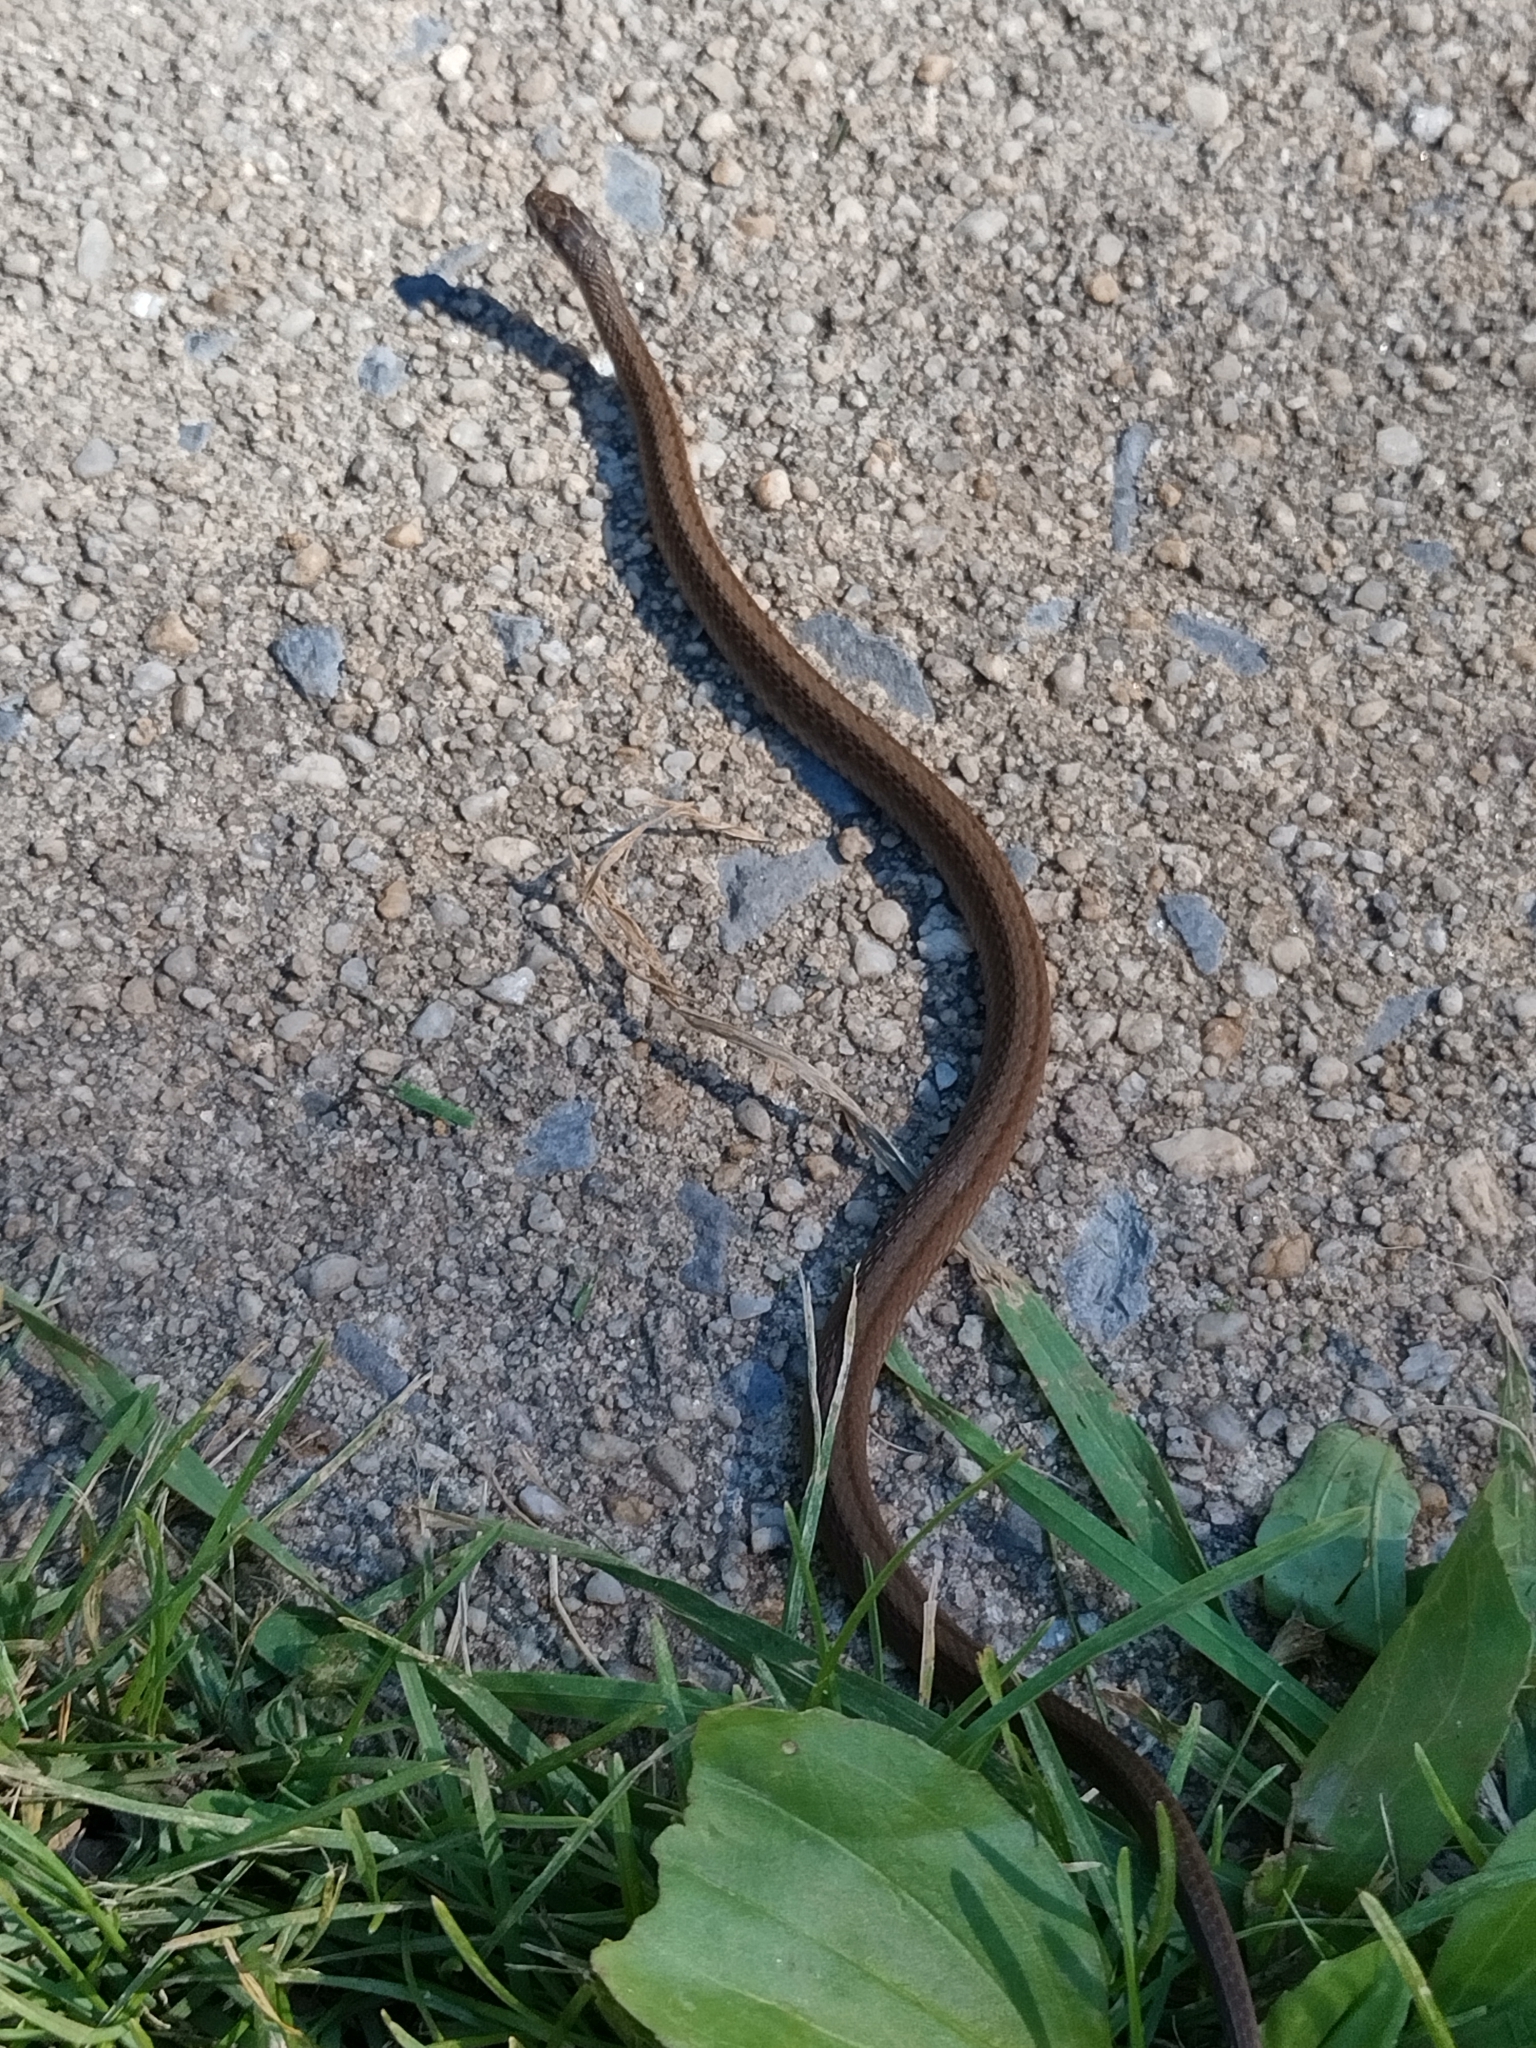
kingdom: Animalia
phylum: Chordata
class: Squamata
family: Colubridae
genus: Storeria
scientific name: Storeria dekayi
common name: (dekay’s) brown snake
